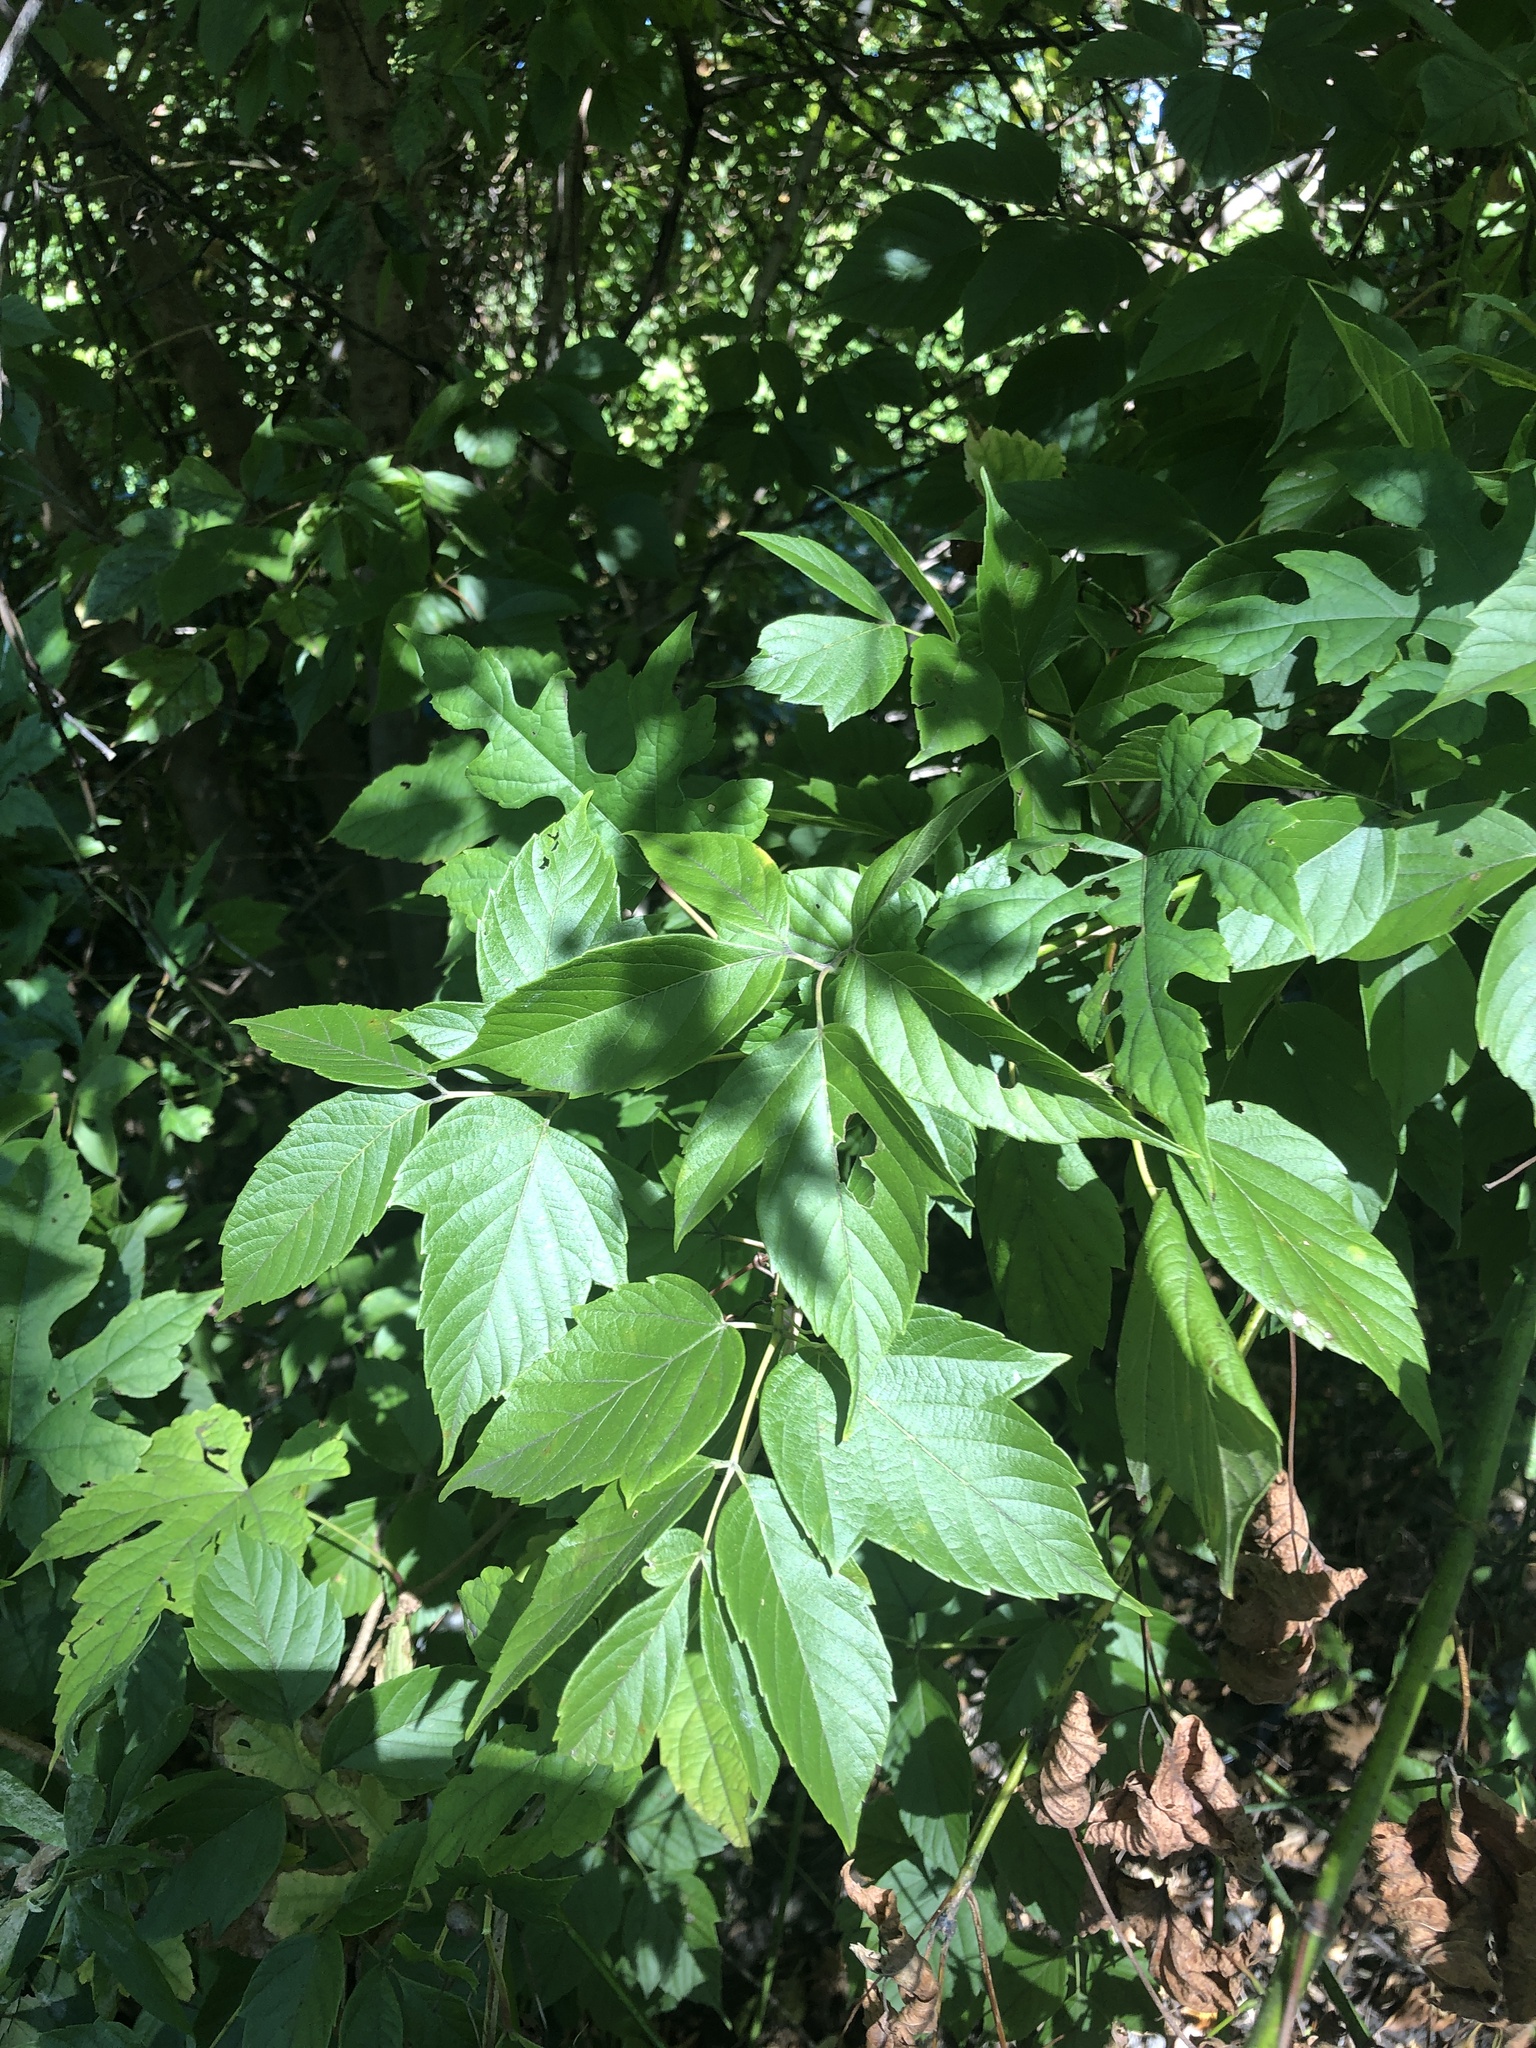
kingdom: Plantae
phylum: Tracheophyta
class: Magnoliopsida
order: Sapindales
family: Sapindaceae
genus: Acer
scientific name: Acer negundo
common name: Ashleaf maple
